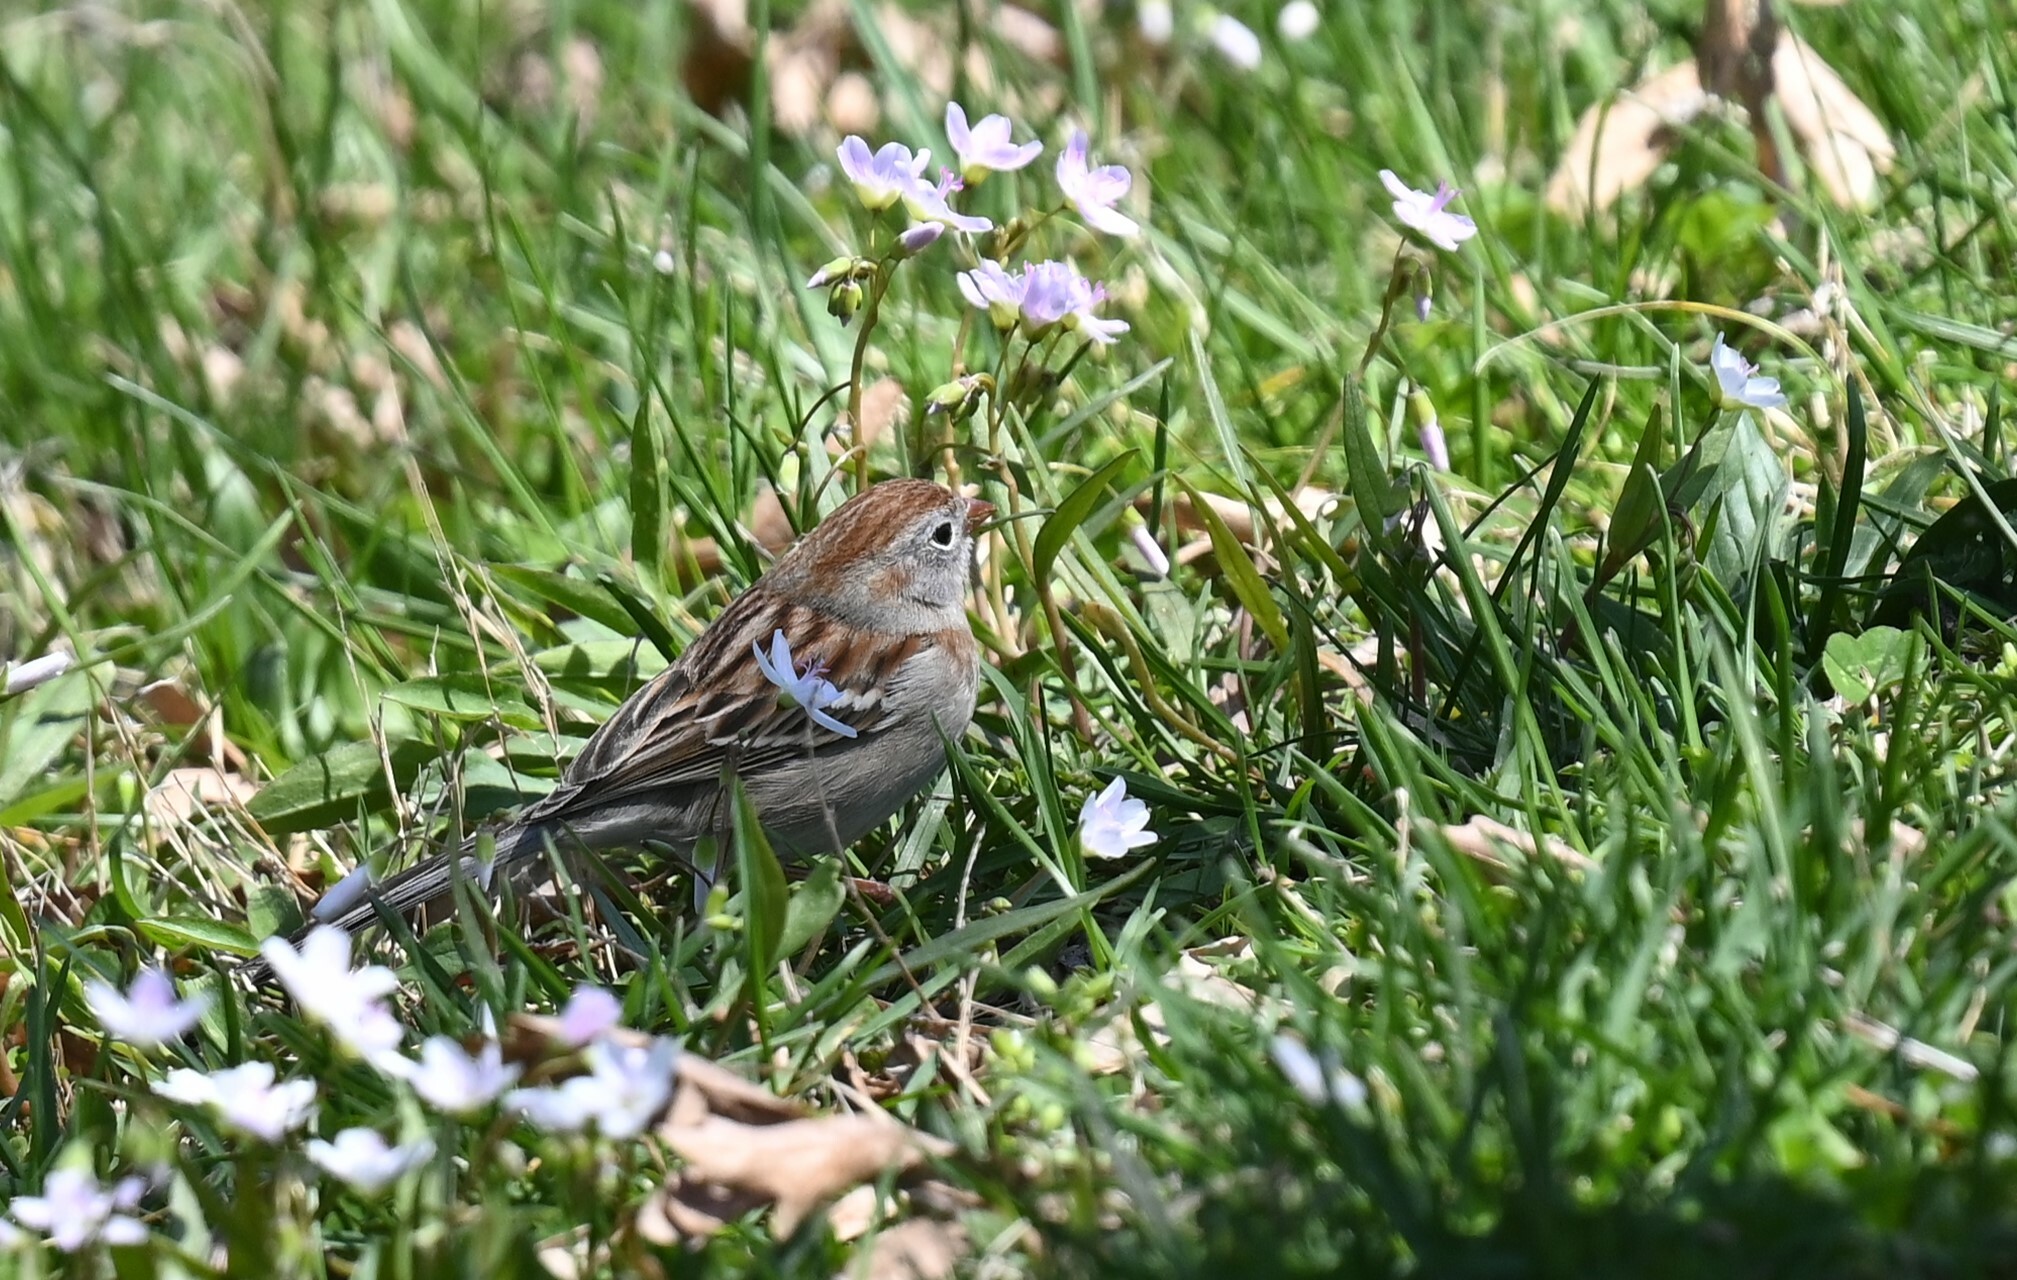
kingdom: Animalia
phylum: Chordata
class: Aves
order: Passeriformes
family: Passerellidae
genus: Spizella
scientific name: Spizella pusilla
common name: Field sparrow
